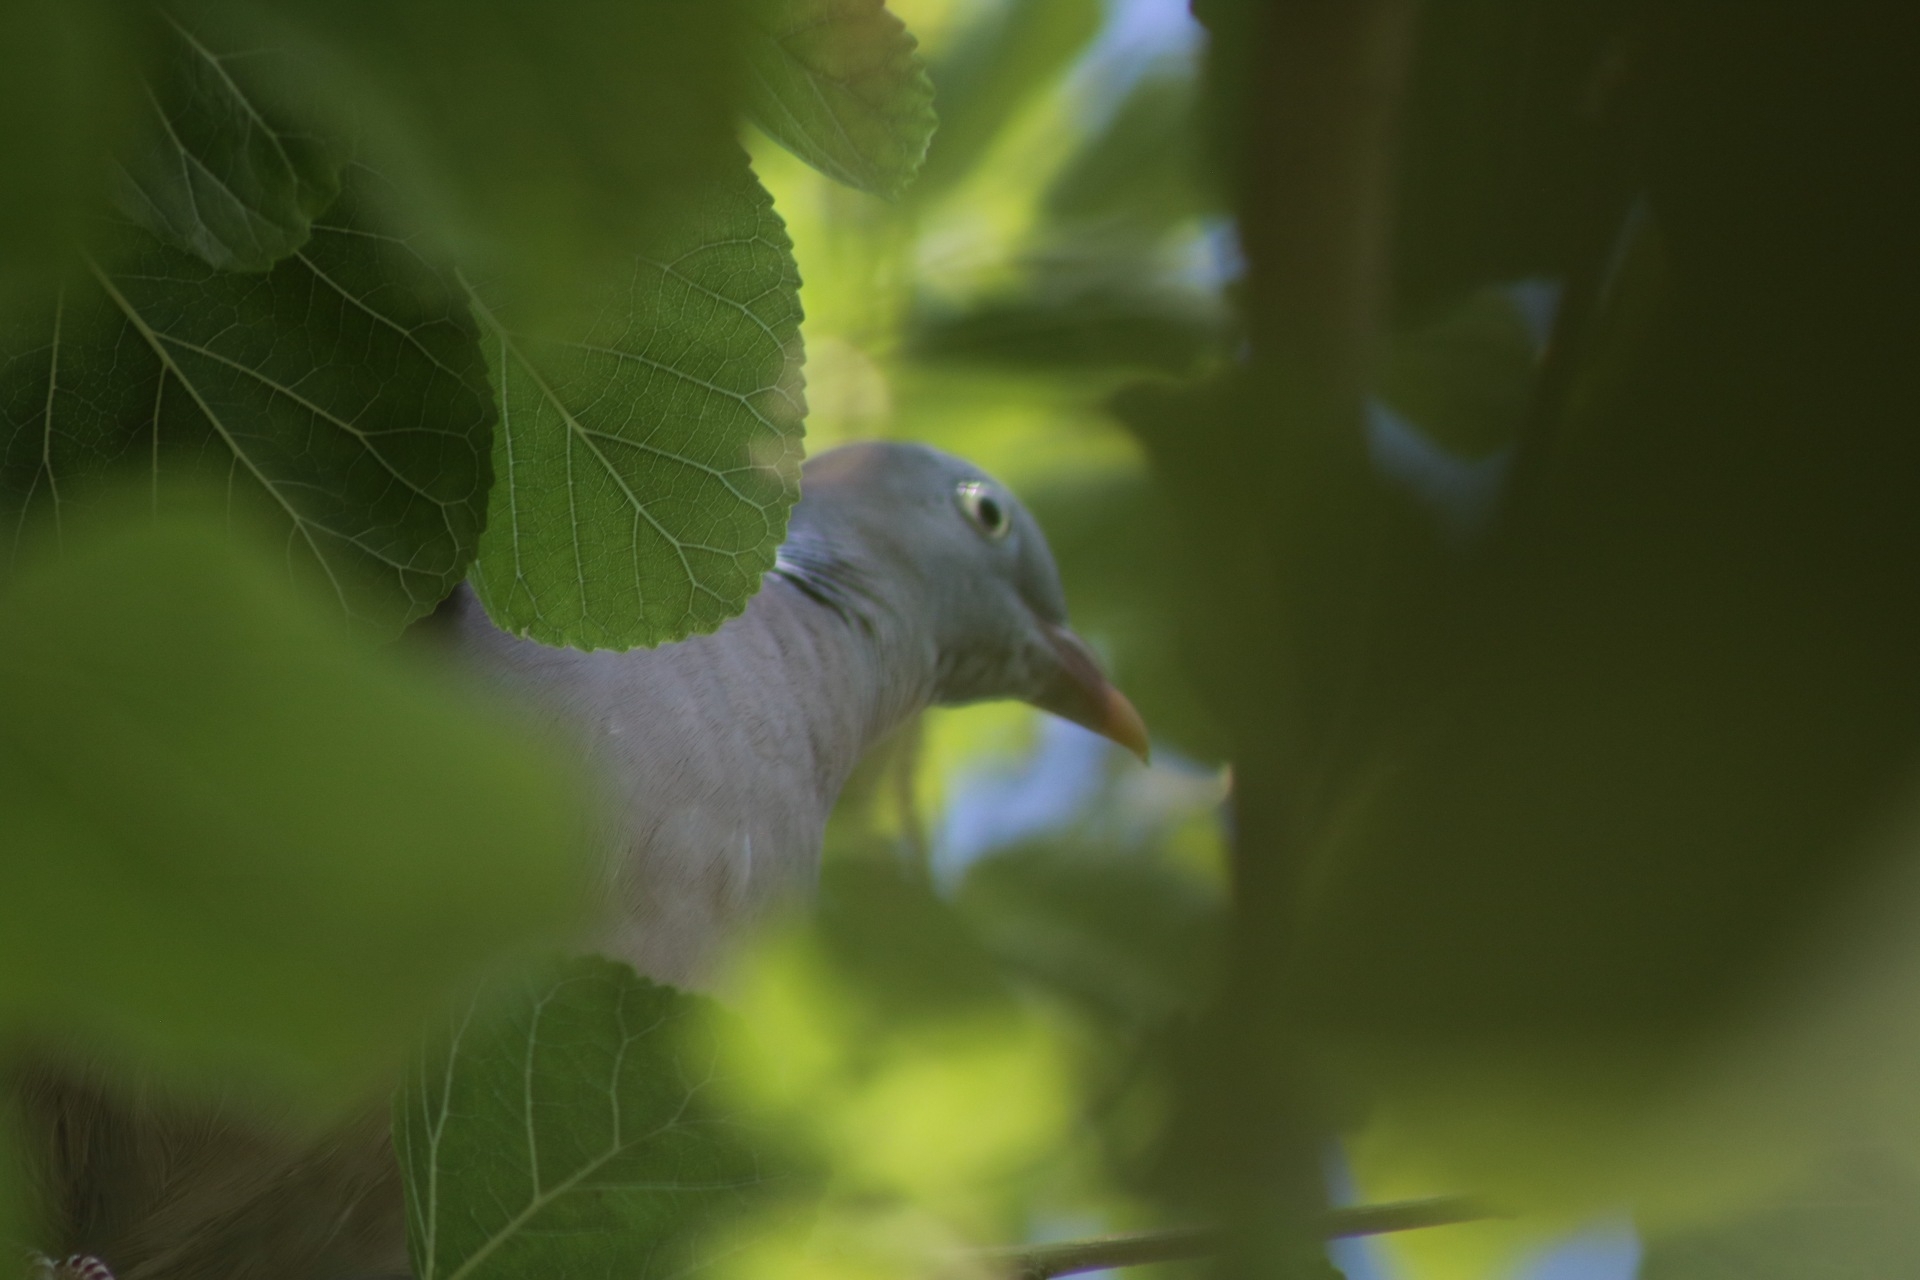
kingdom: Animalia
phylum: Chordata
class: Aves
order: Columbiformes
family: Columbidae
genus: Columba
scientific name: Columba palumbus
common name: Common wood pigeon
